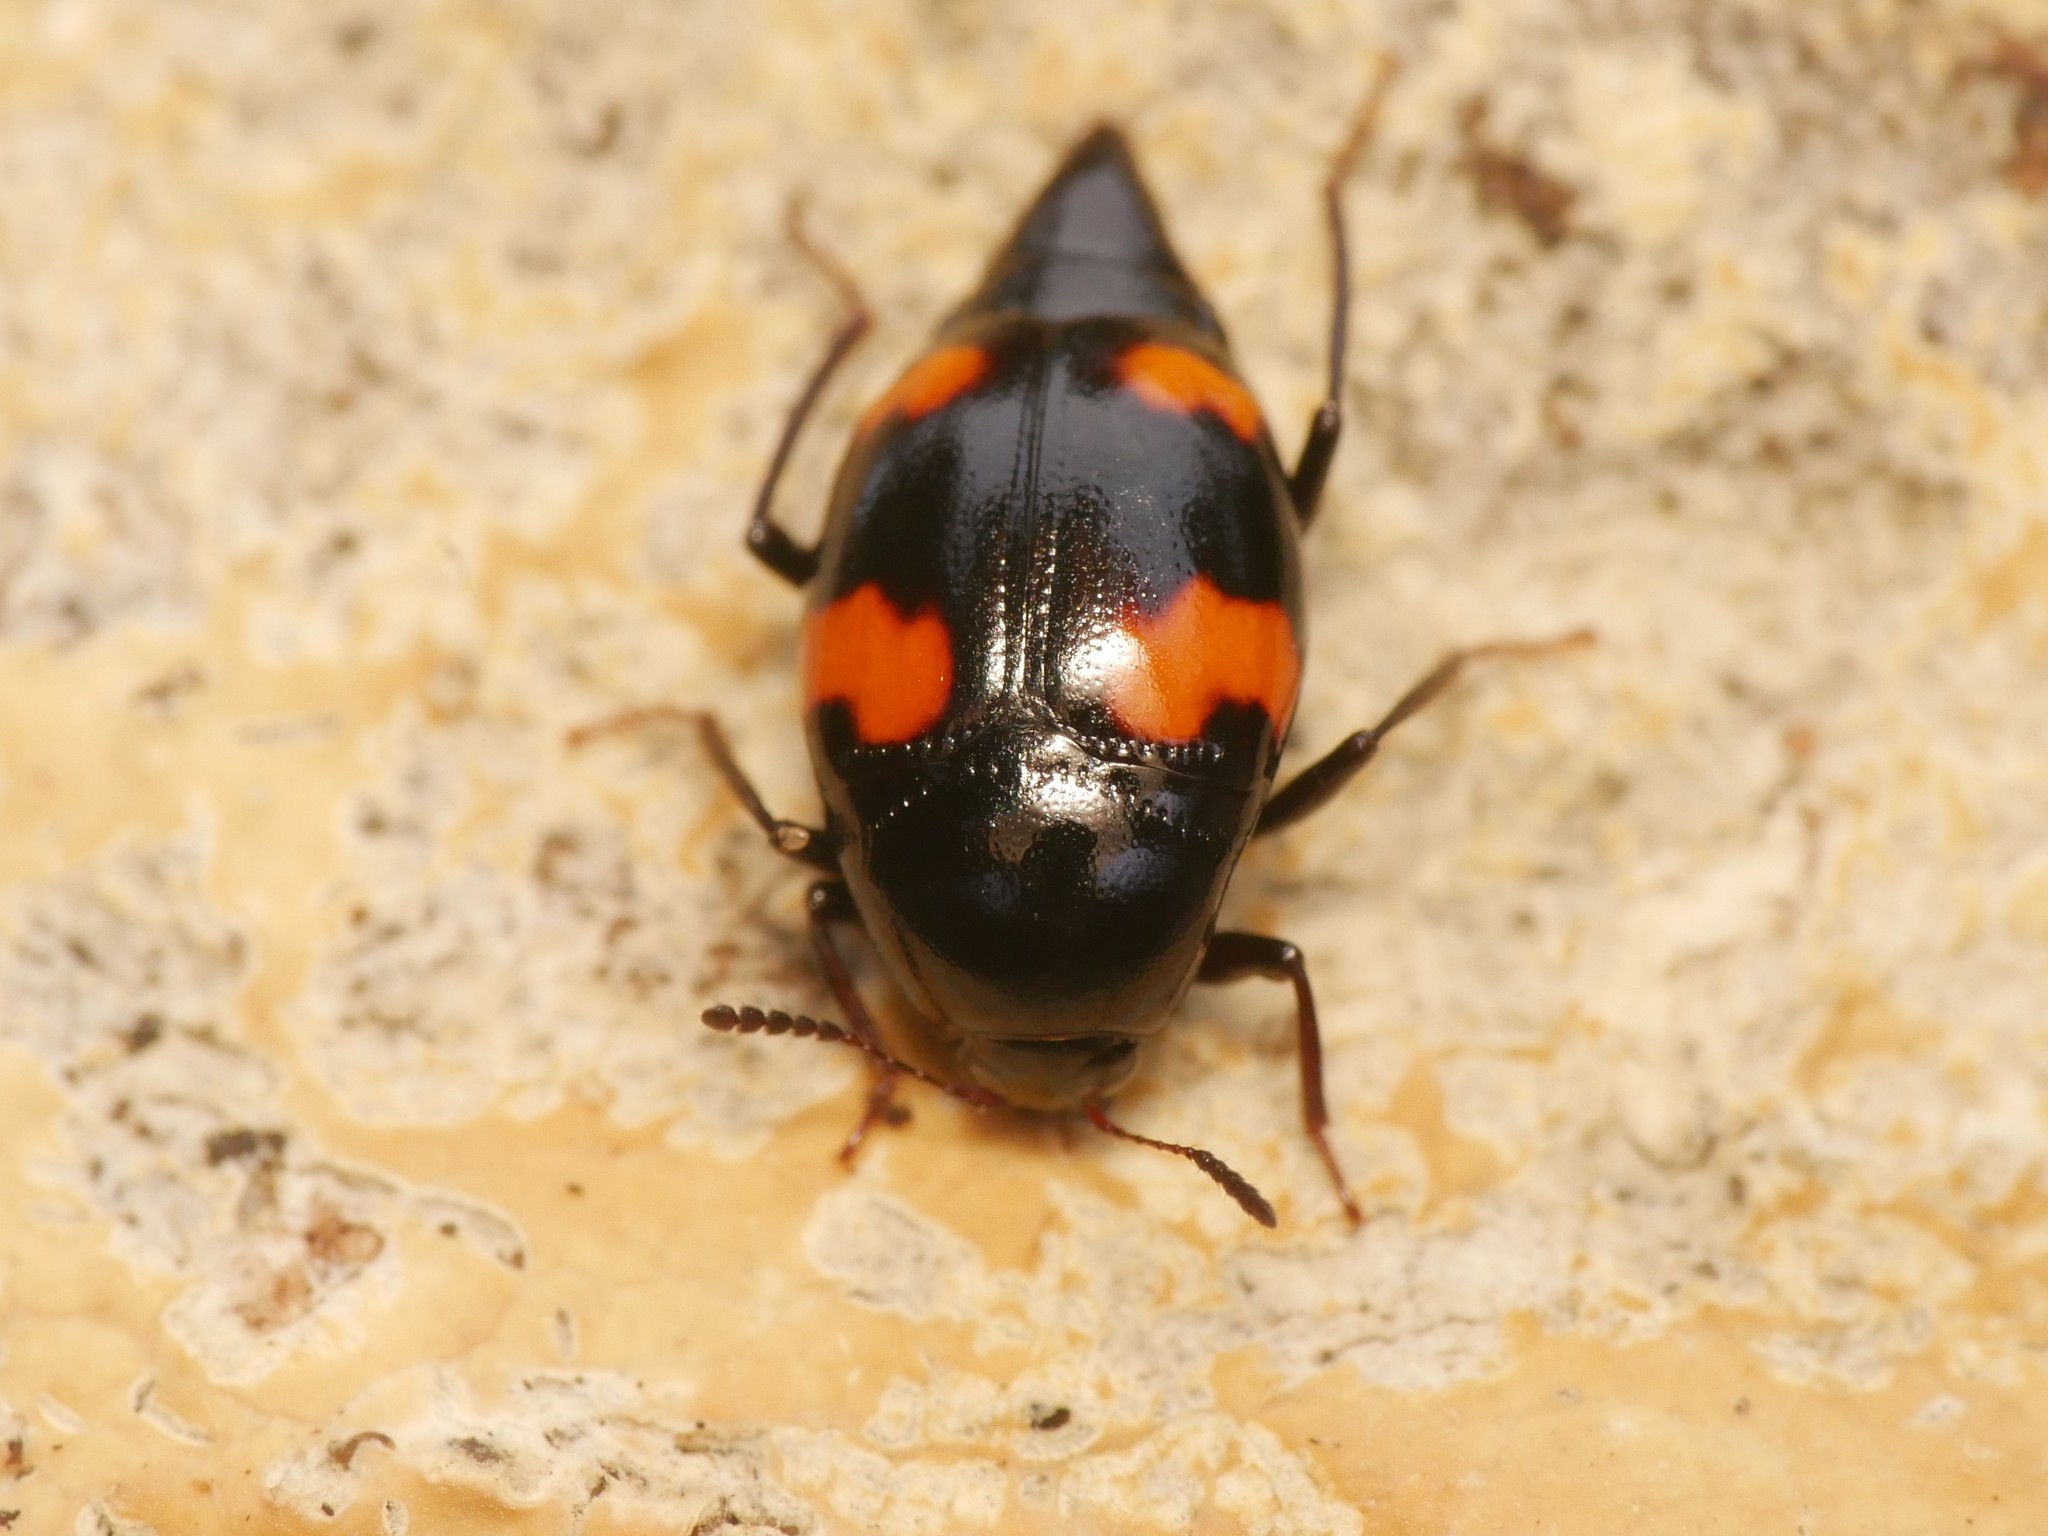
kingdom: Animalia
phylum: Arthropoda
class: Insecta
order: Coleoptera
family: Staphylinidae
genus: Scaphidium
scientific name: Scaphidium quadrimaculatum
